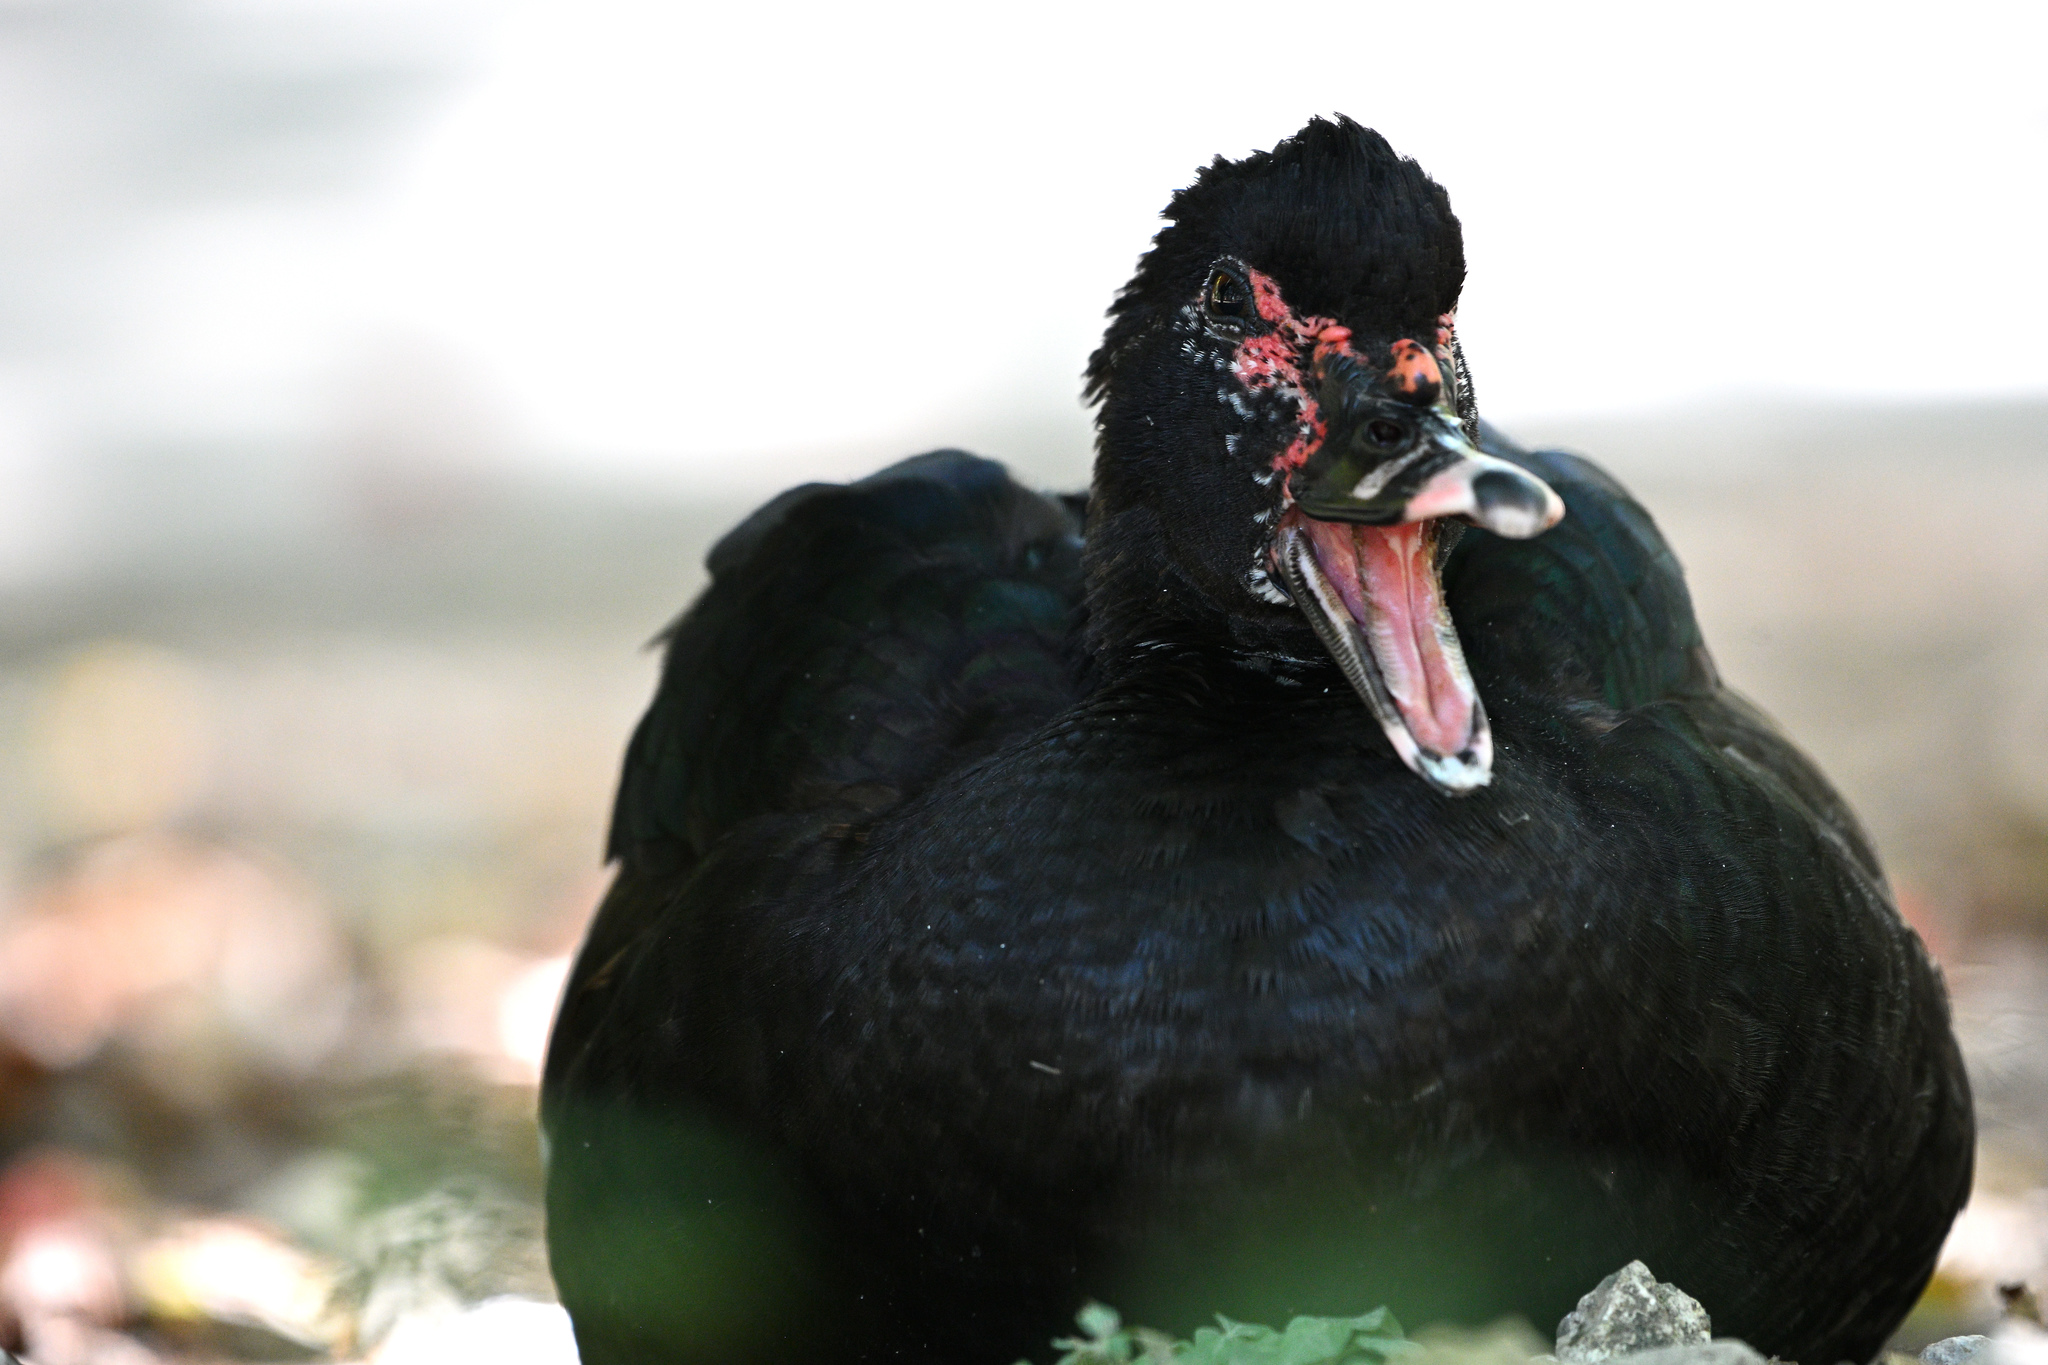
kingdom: Animalia
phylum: Chordata
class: Aves
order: Anseriformes
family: Anatidae
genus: Cairina
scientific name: Cairina moschata
